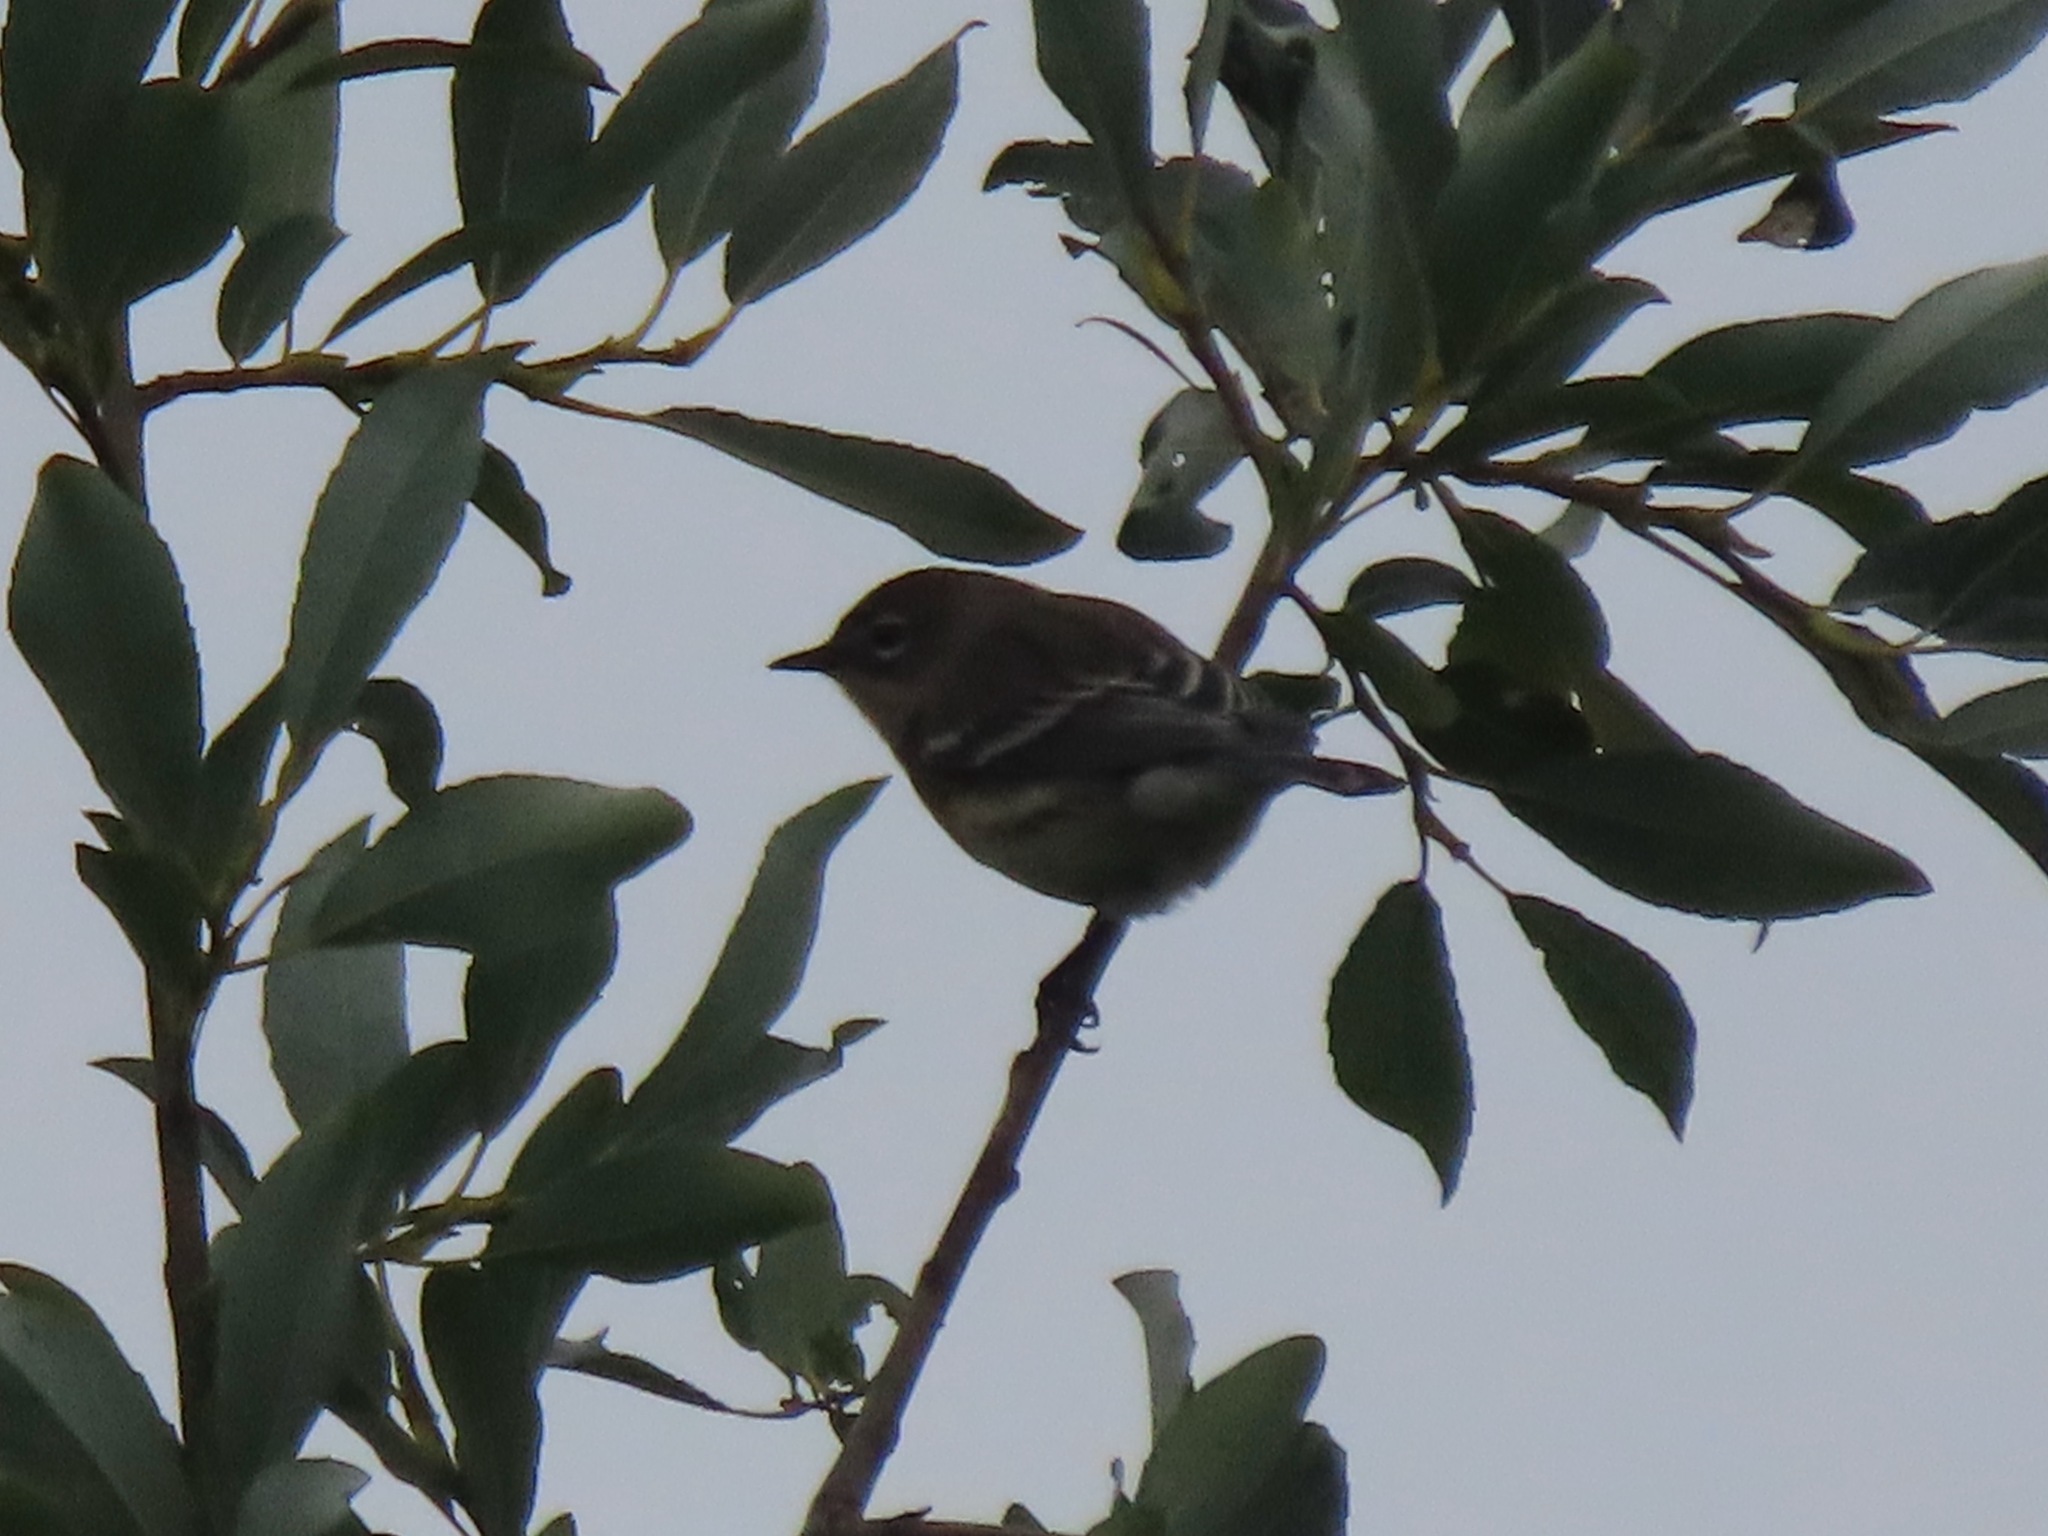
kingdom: Animalia
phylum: Chordata
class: Aves
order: Passeriformes
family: Parulidae
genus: Setophaga
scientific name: Setophaga coronata
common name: Myrtle warbler
